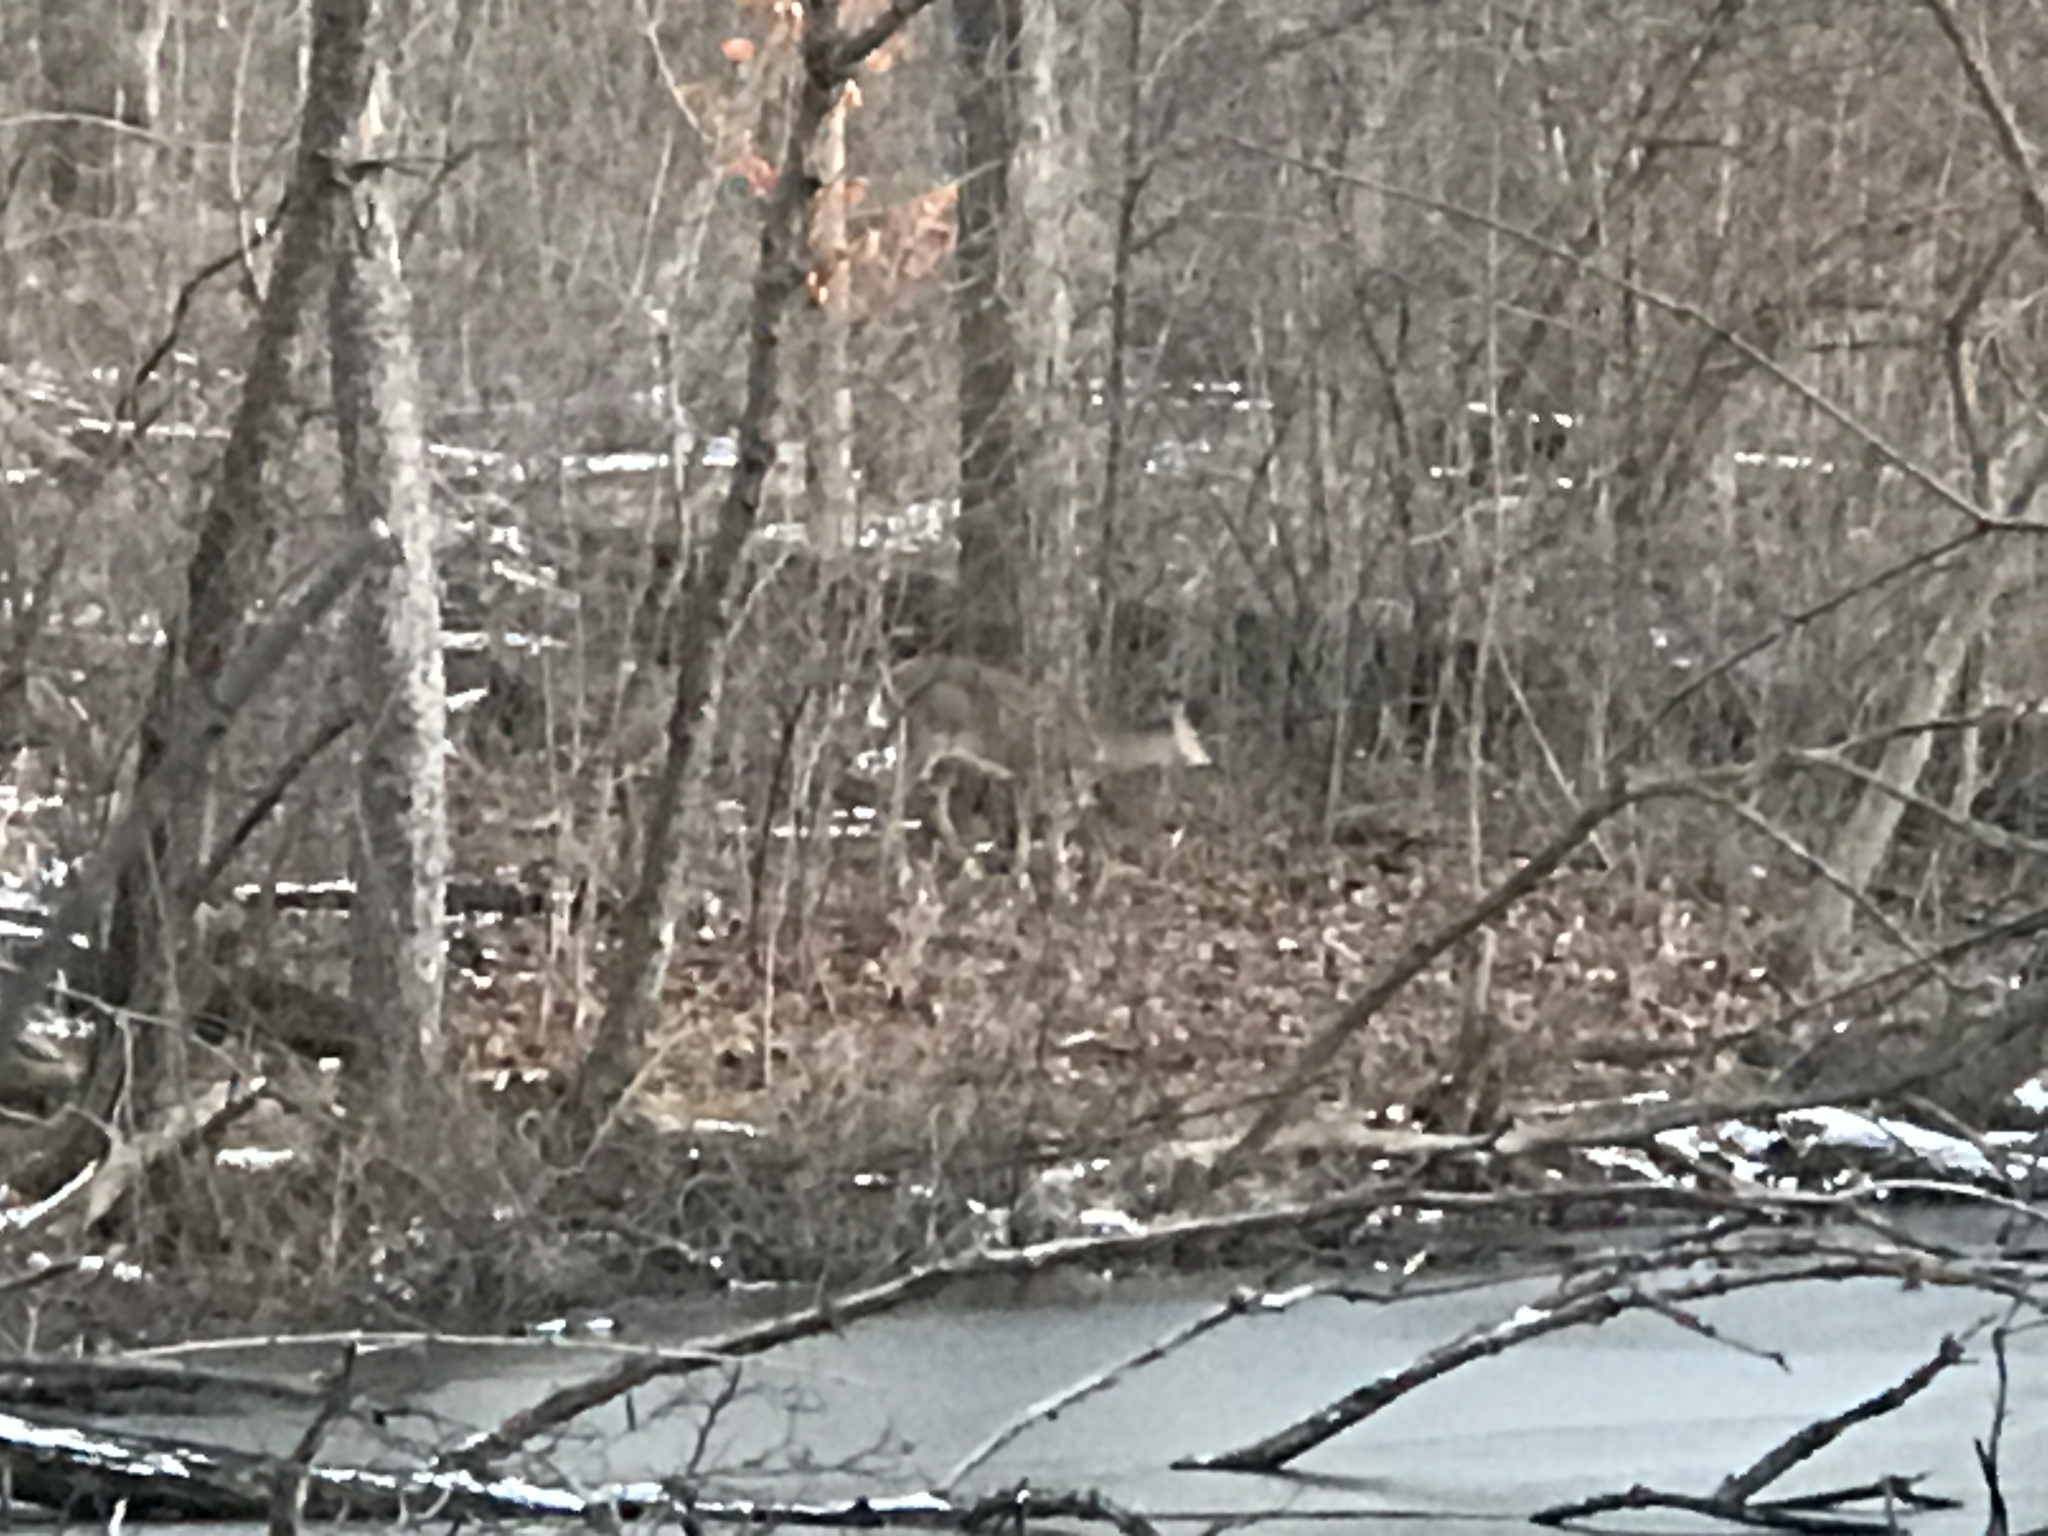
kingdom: Animalia
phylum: Chordata
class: Mammalia
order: Artiodactyla
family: Cervidae
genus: Odocoileus
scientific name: Odocoileus virginianus
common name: White-tailed deer
